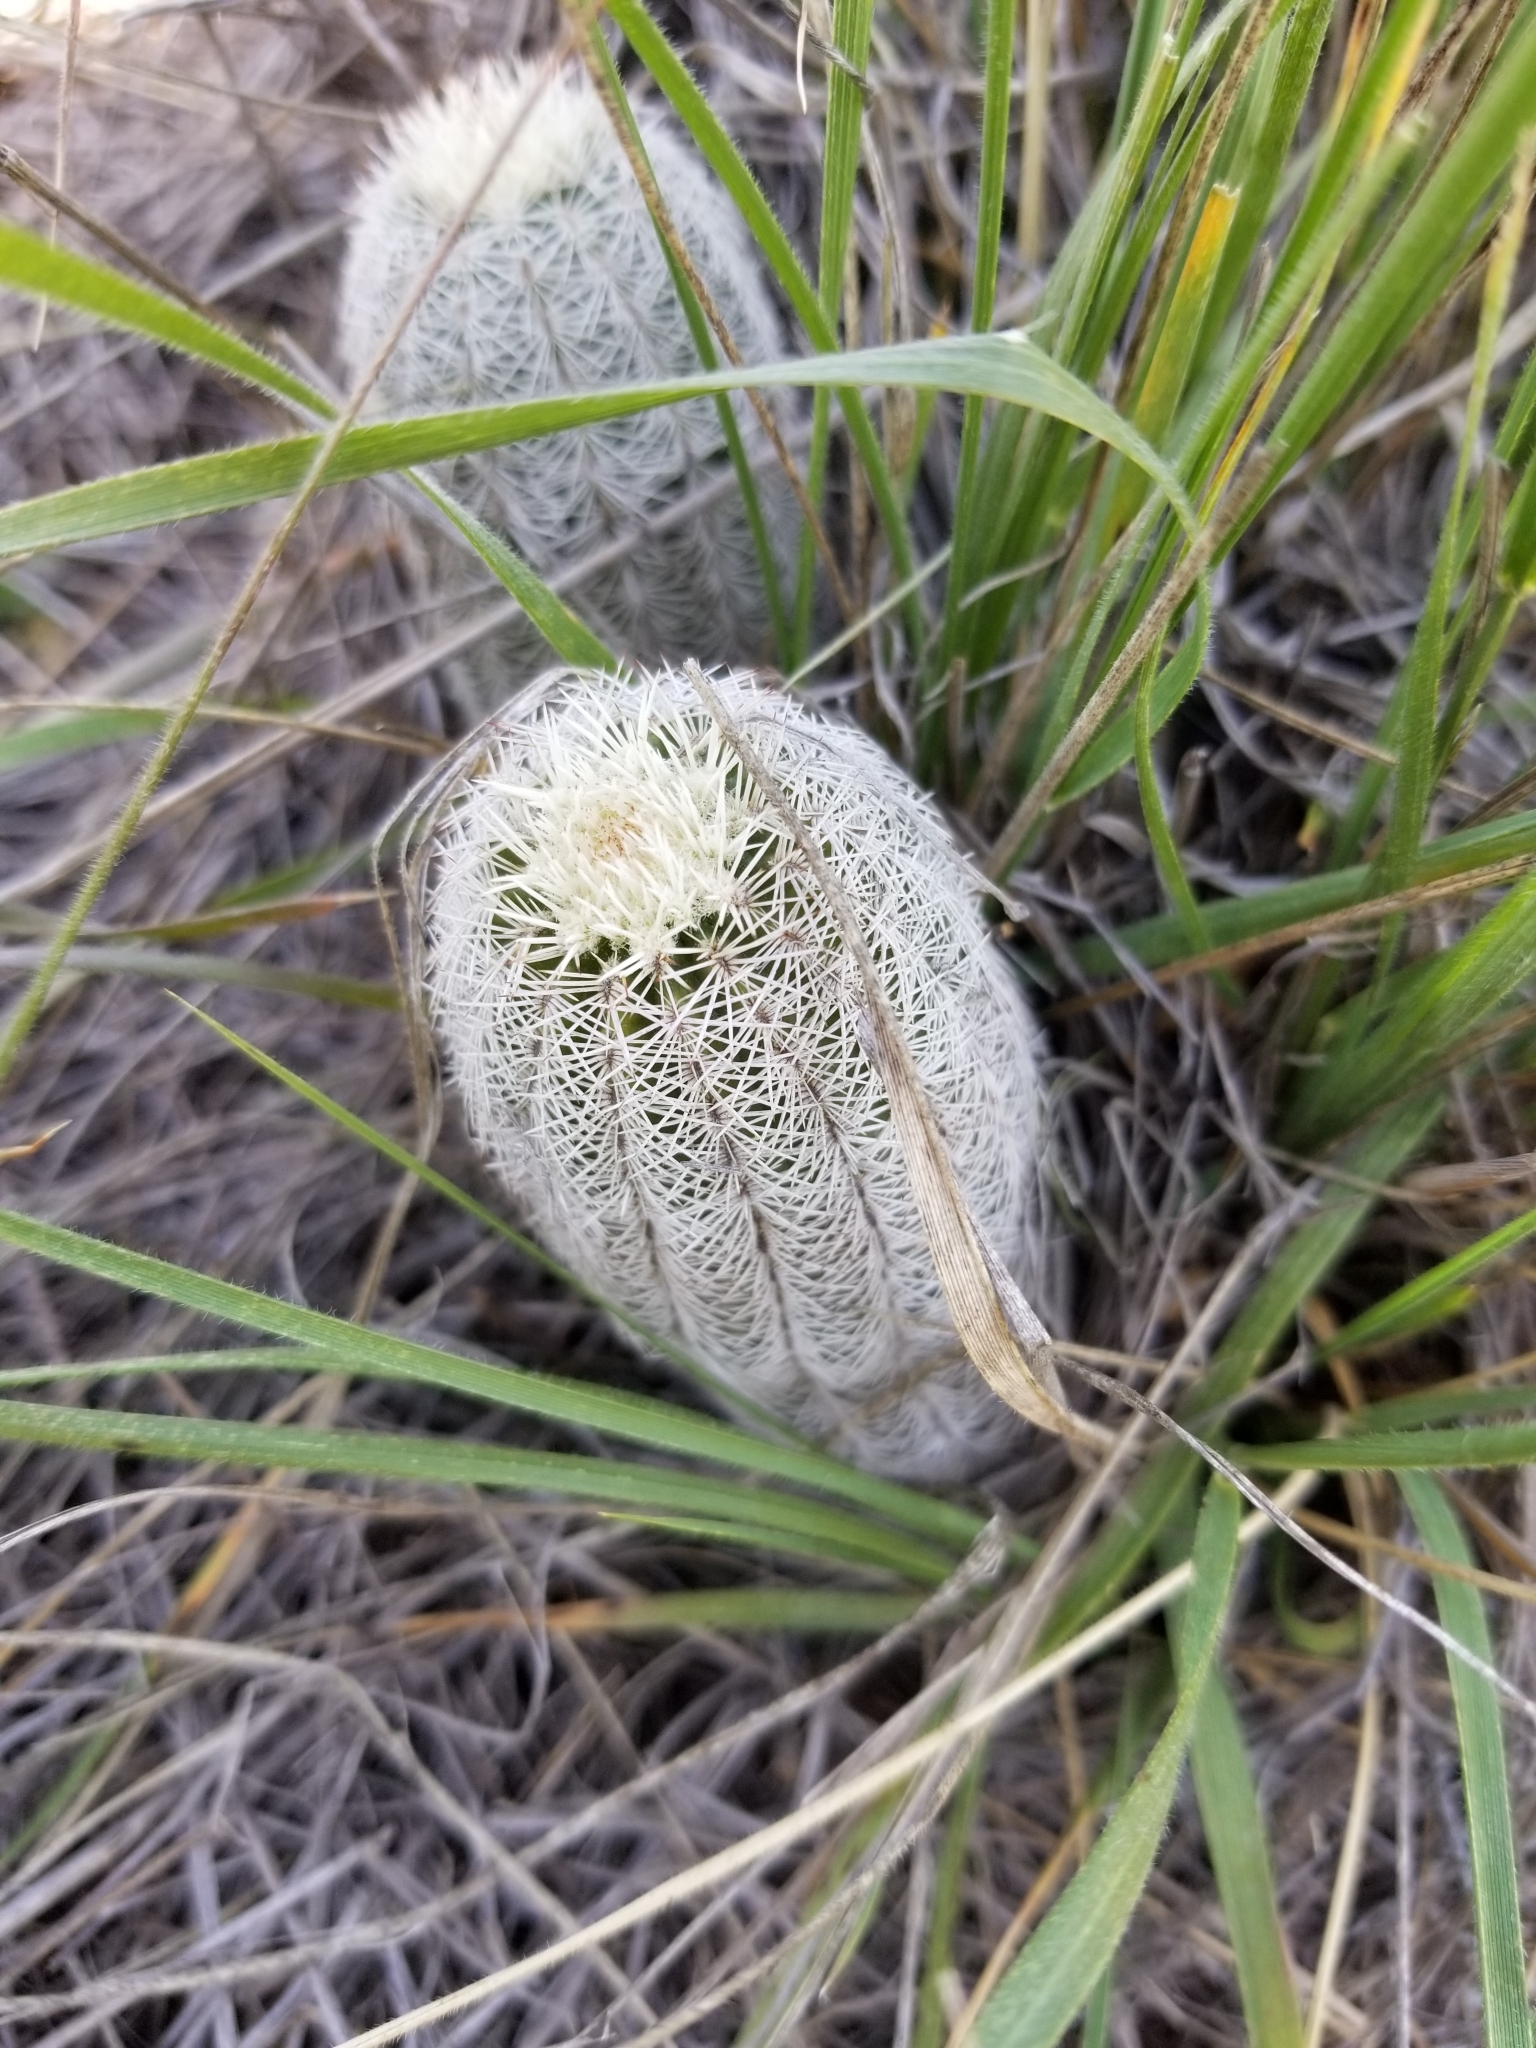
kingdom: Plantae
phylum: Tracheophyta
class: Magnoliopsida
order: Caryophyllales
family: Cactaceae
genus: Echinocereus
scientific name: Echinocereus reichenbachii
